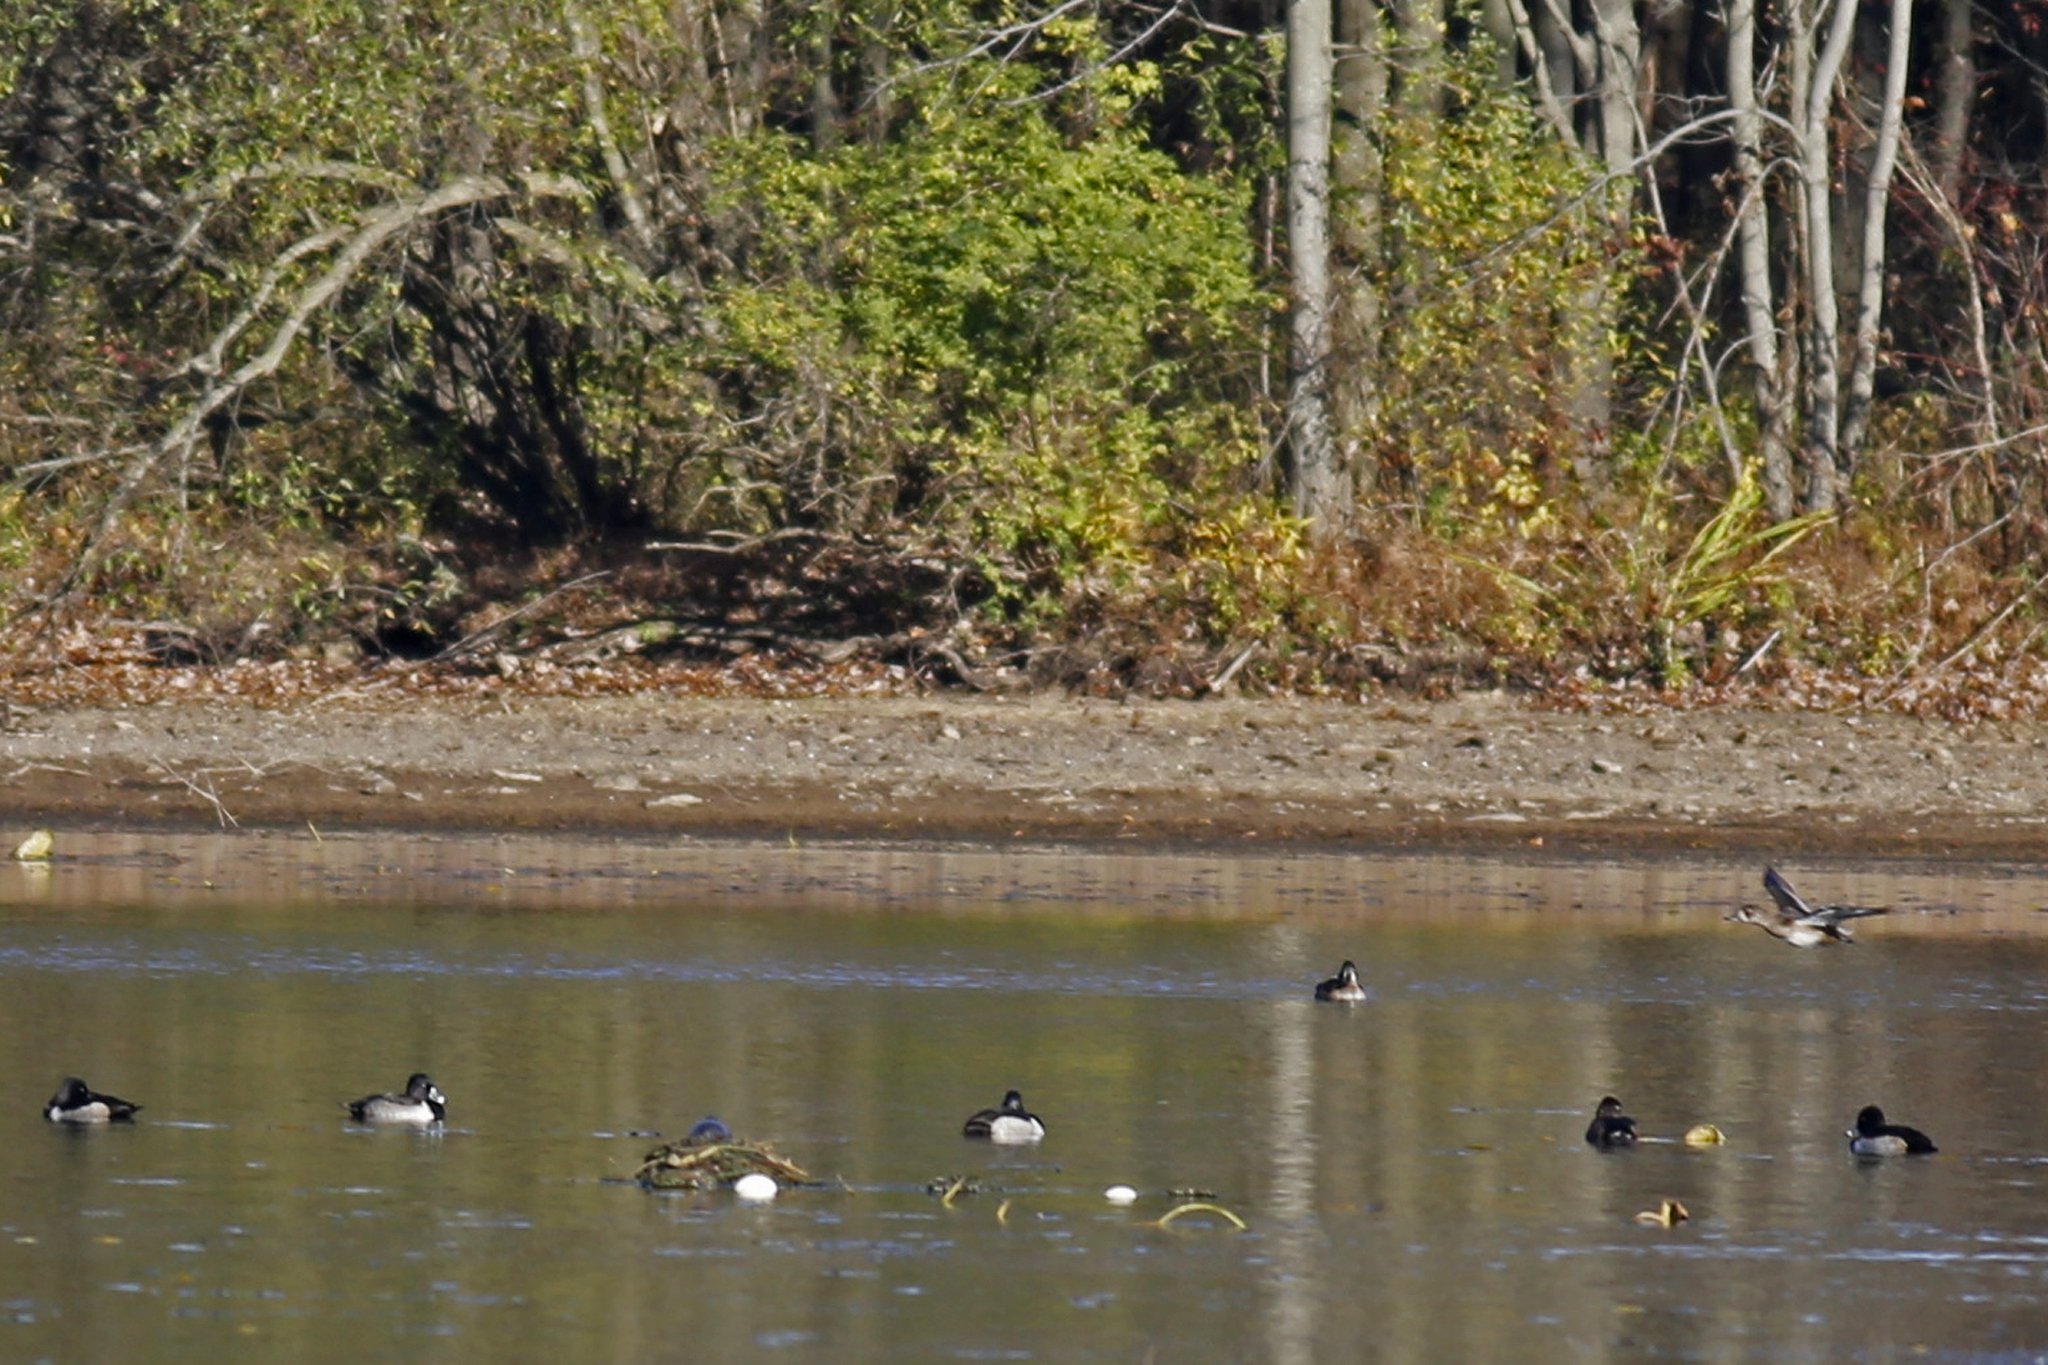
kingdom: Animalia
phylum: Chordata
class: Aves
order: Anseriformes
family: Anatidae
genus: Aythya
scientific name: Aythya collaris
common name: Ring-necked duck
